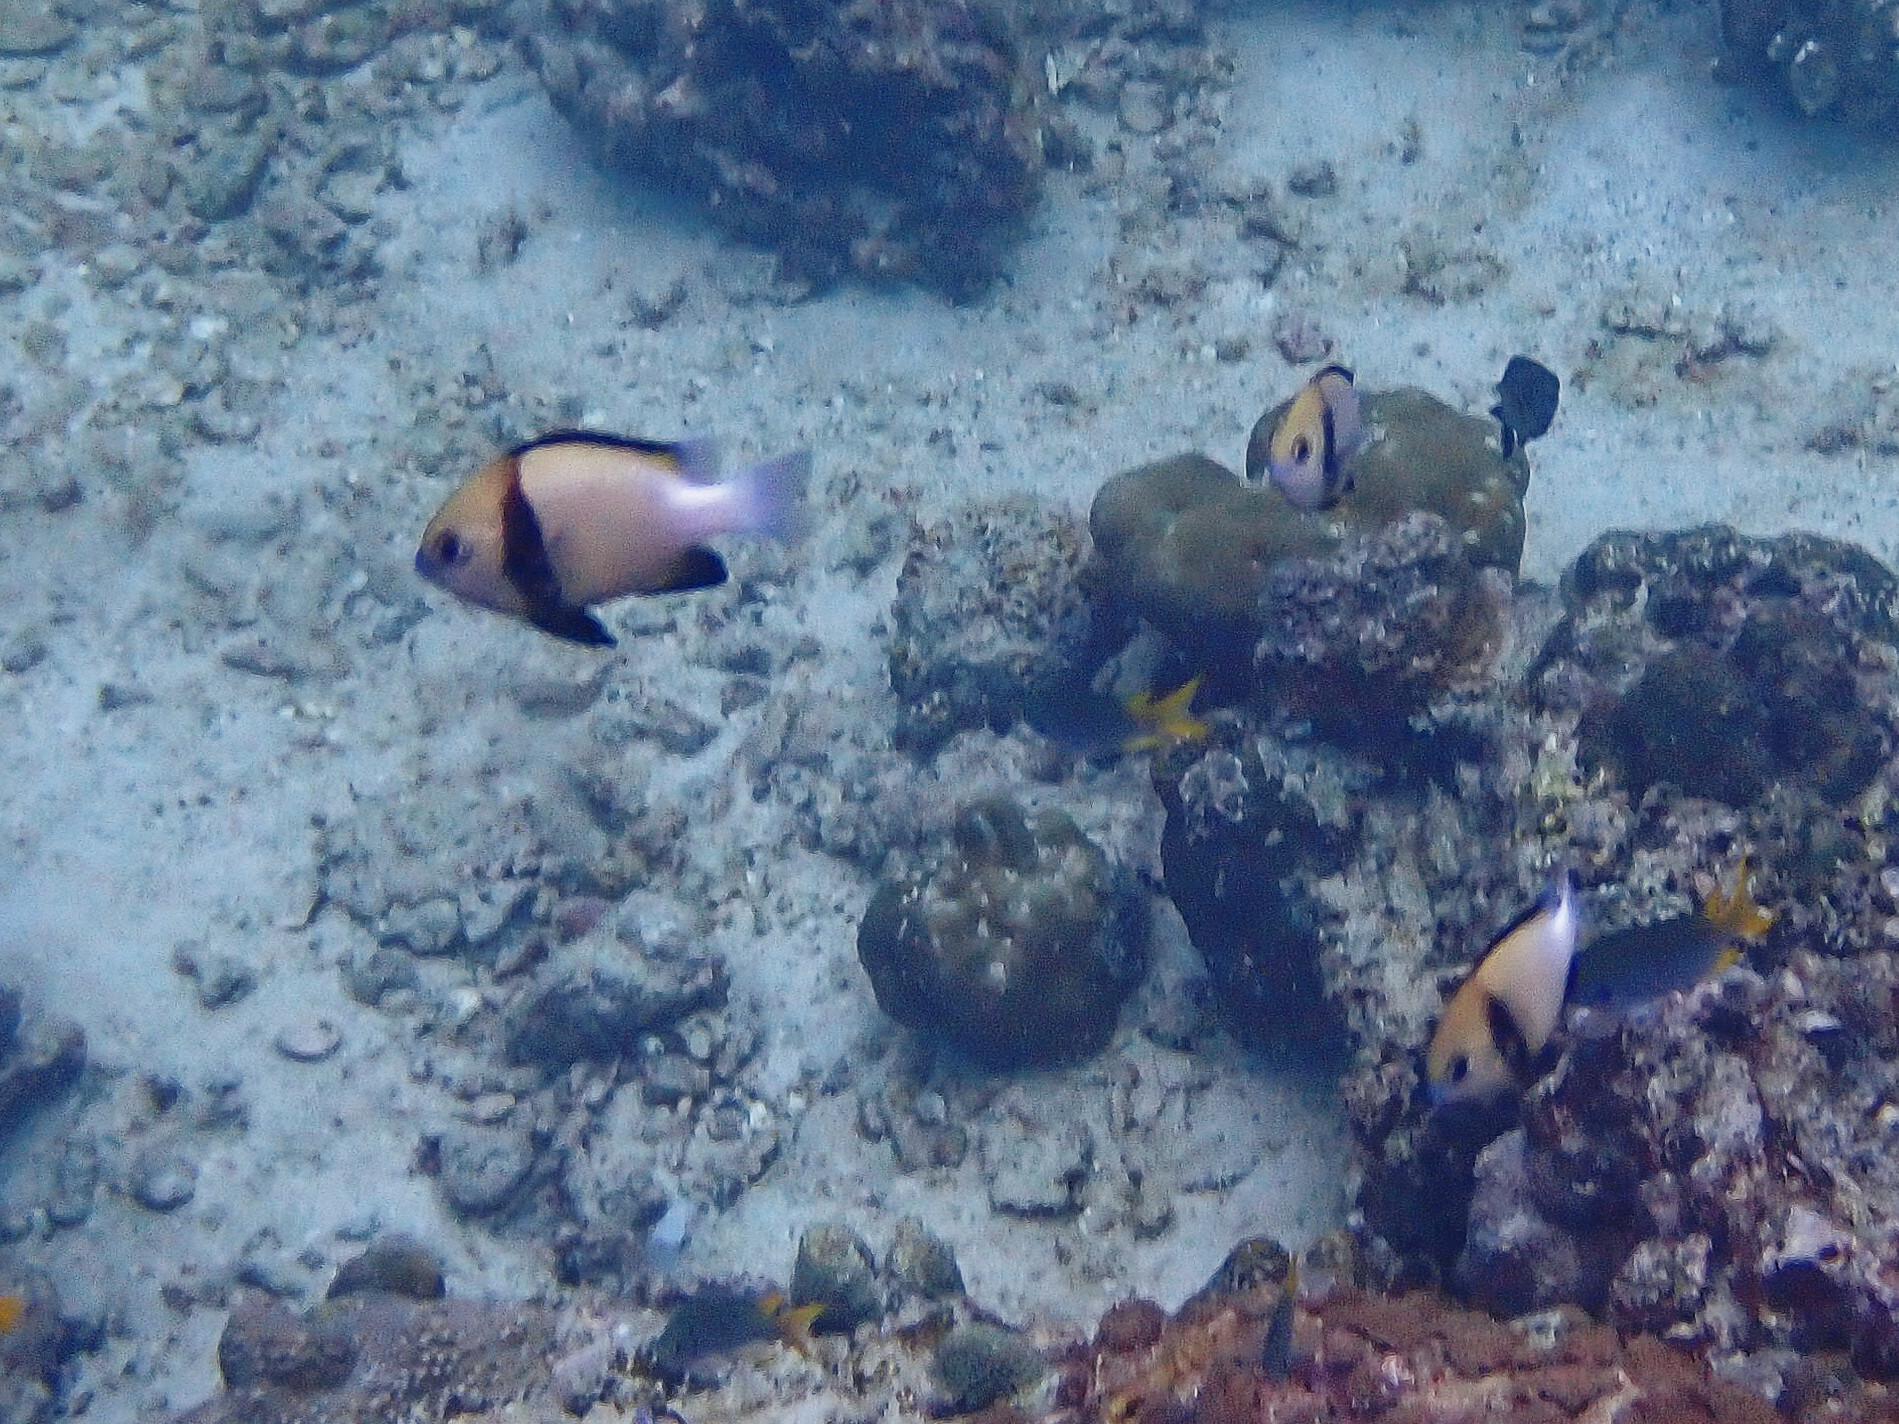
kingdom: Animalia
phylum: Chordata
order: Perciformes
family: Pomacentridae
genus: Dascyllus
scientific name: Dascyllus carneus
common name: Indian dascyllus
